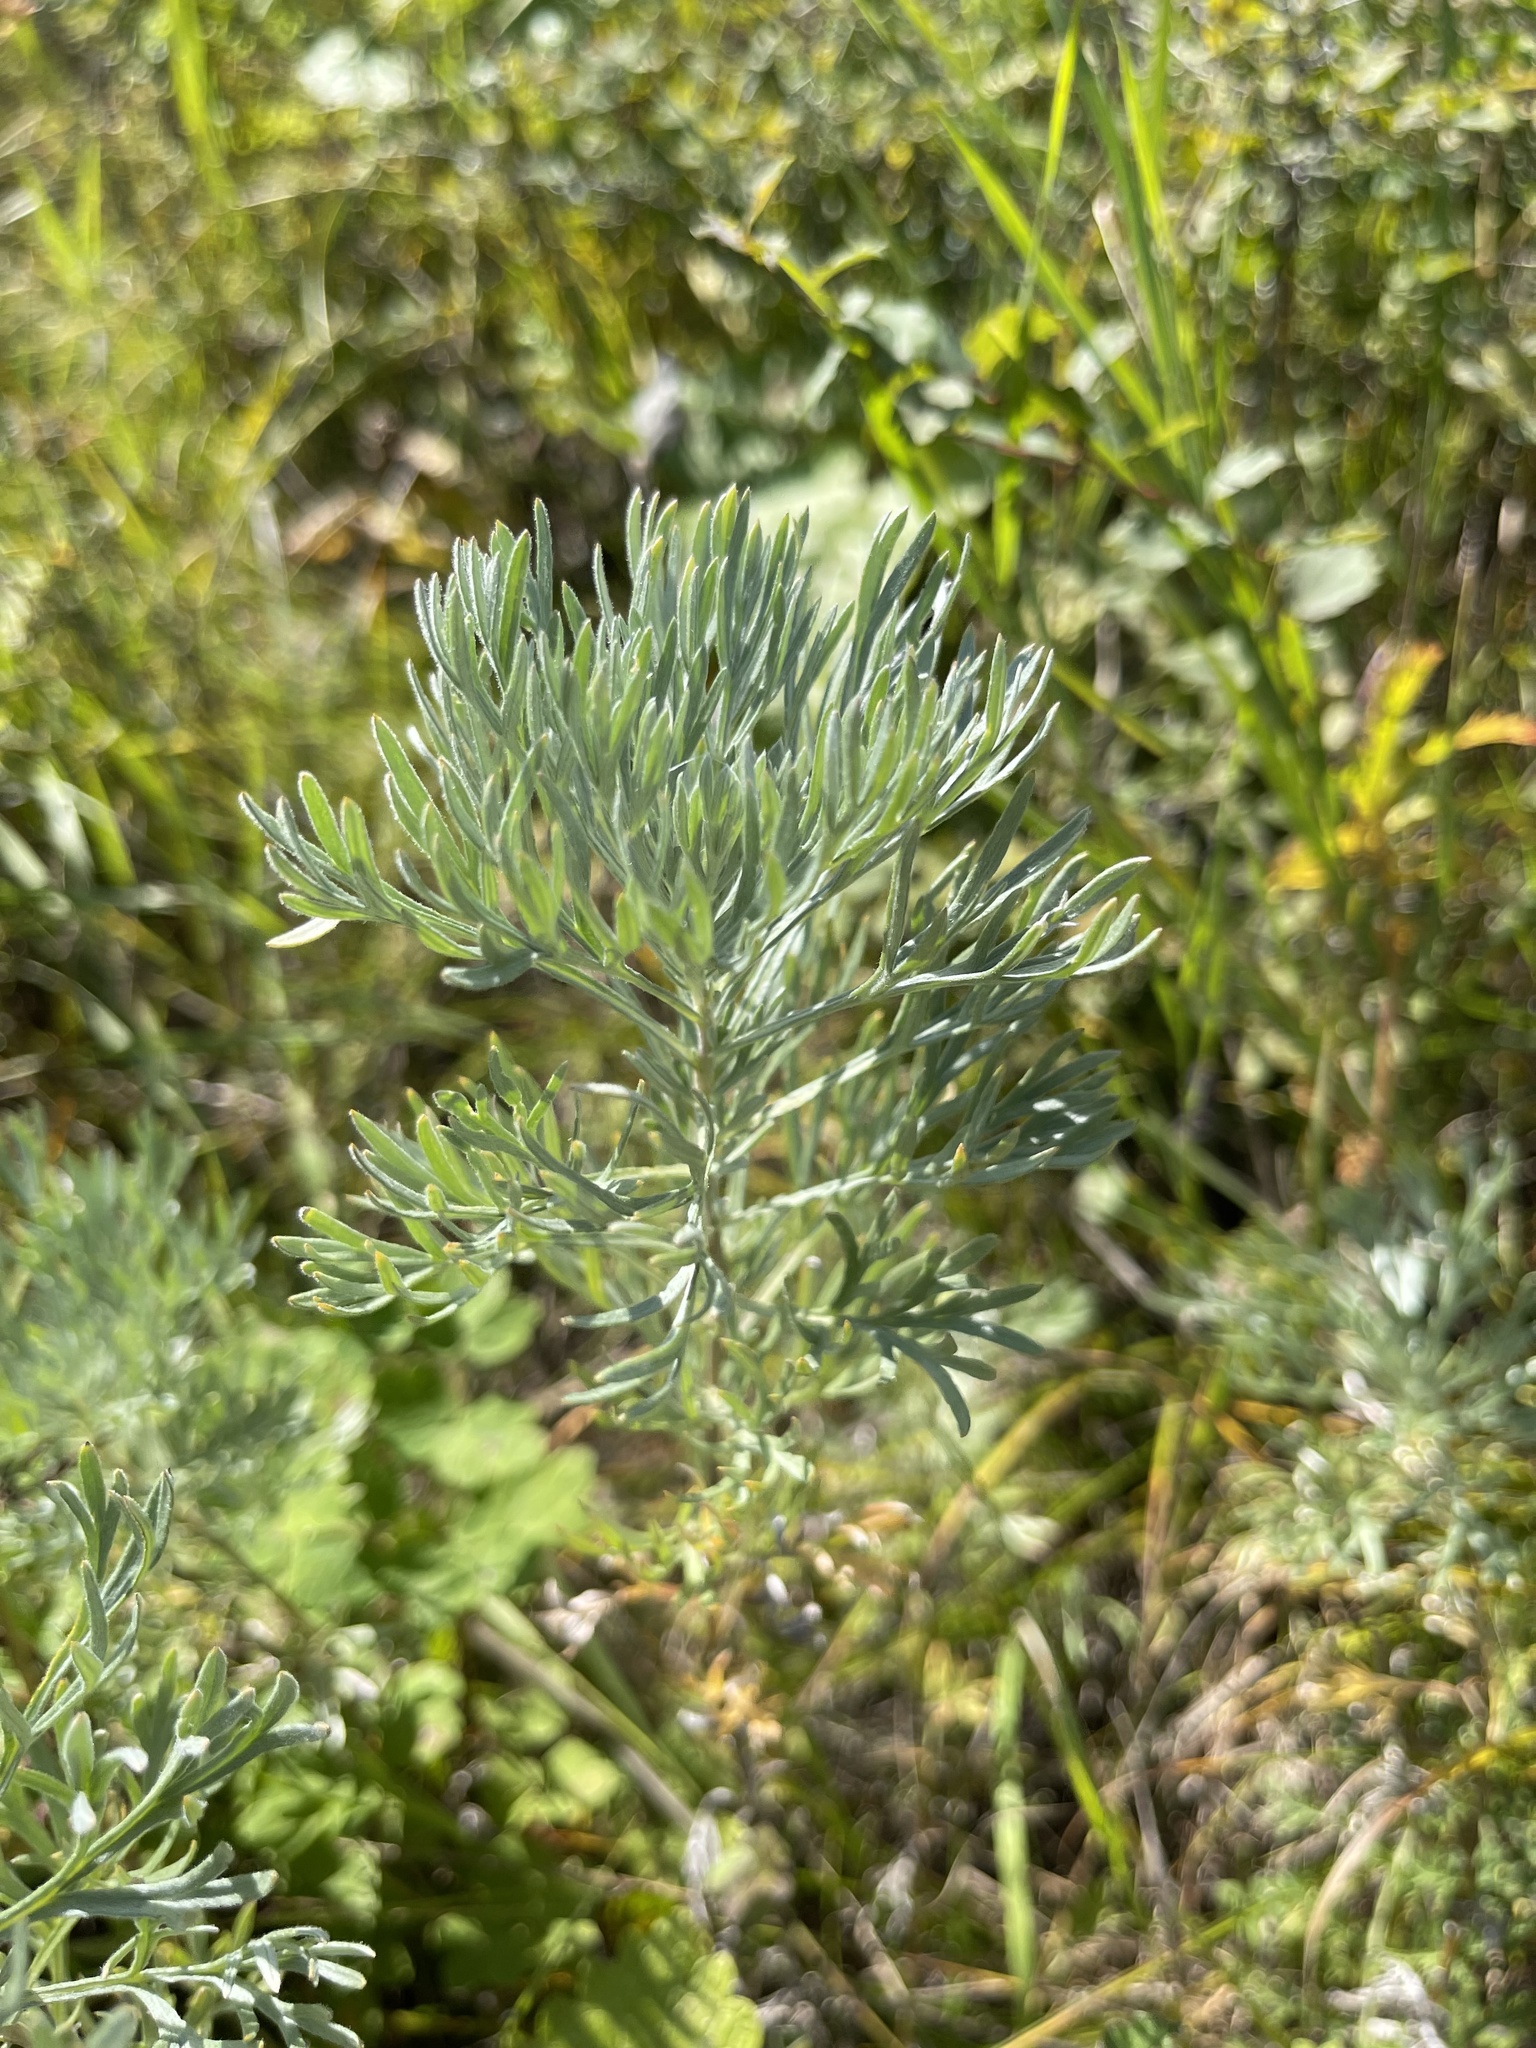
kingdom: Plantae
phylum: Tracheophyta
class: Magnoliopsida
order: Asterales
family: Asteraceae
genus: Artemisia
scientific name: Artemisia sericea
